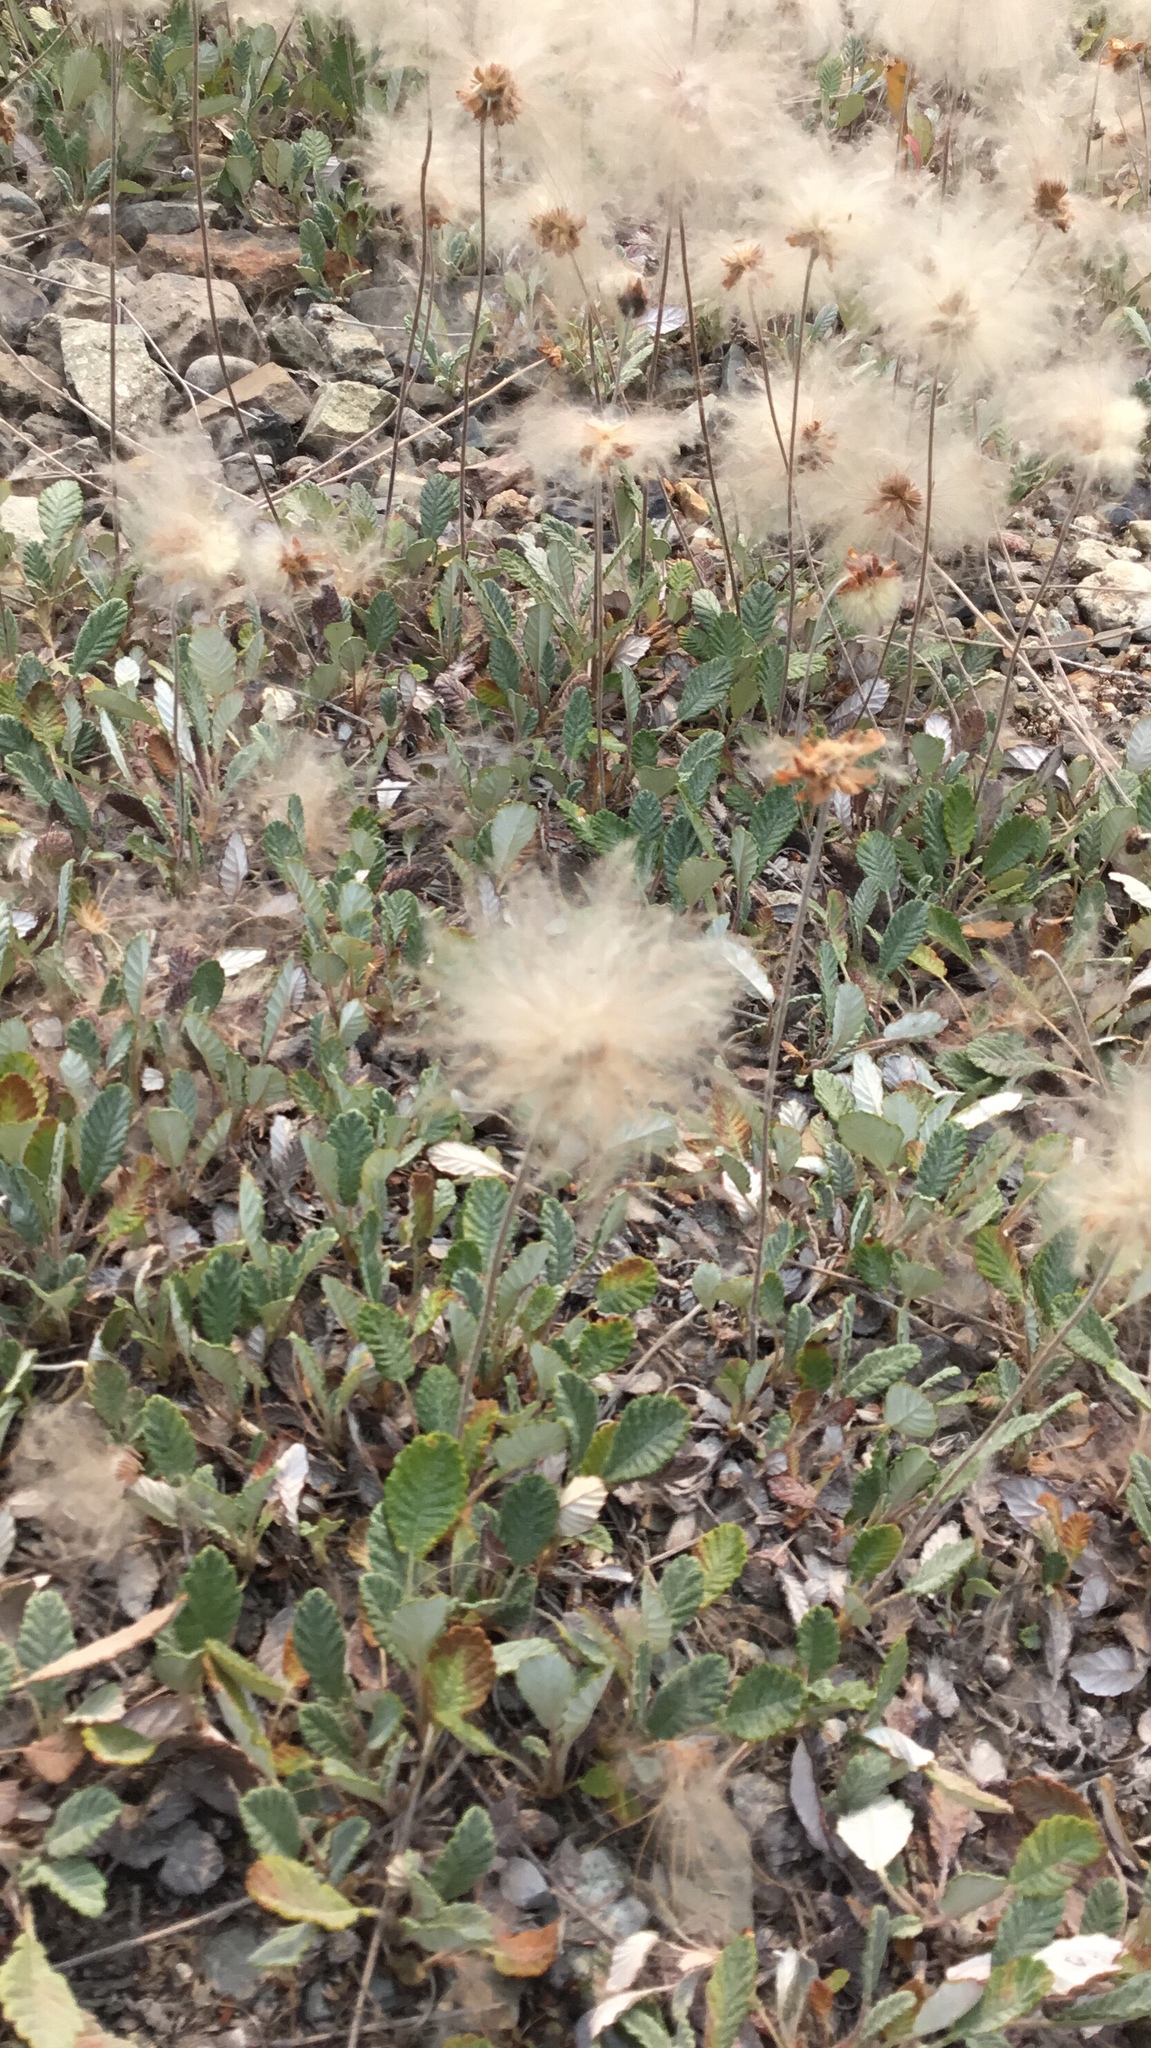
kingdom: Plantae
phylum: Tracheophyta
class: Magnoliopsida
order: Rosales
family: Rosaceae
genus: Dryas
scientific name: Dryas drummondii
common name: Drummond's dryad
